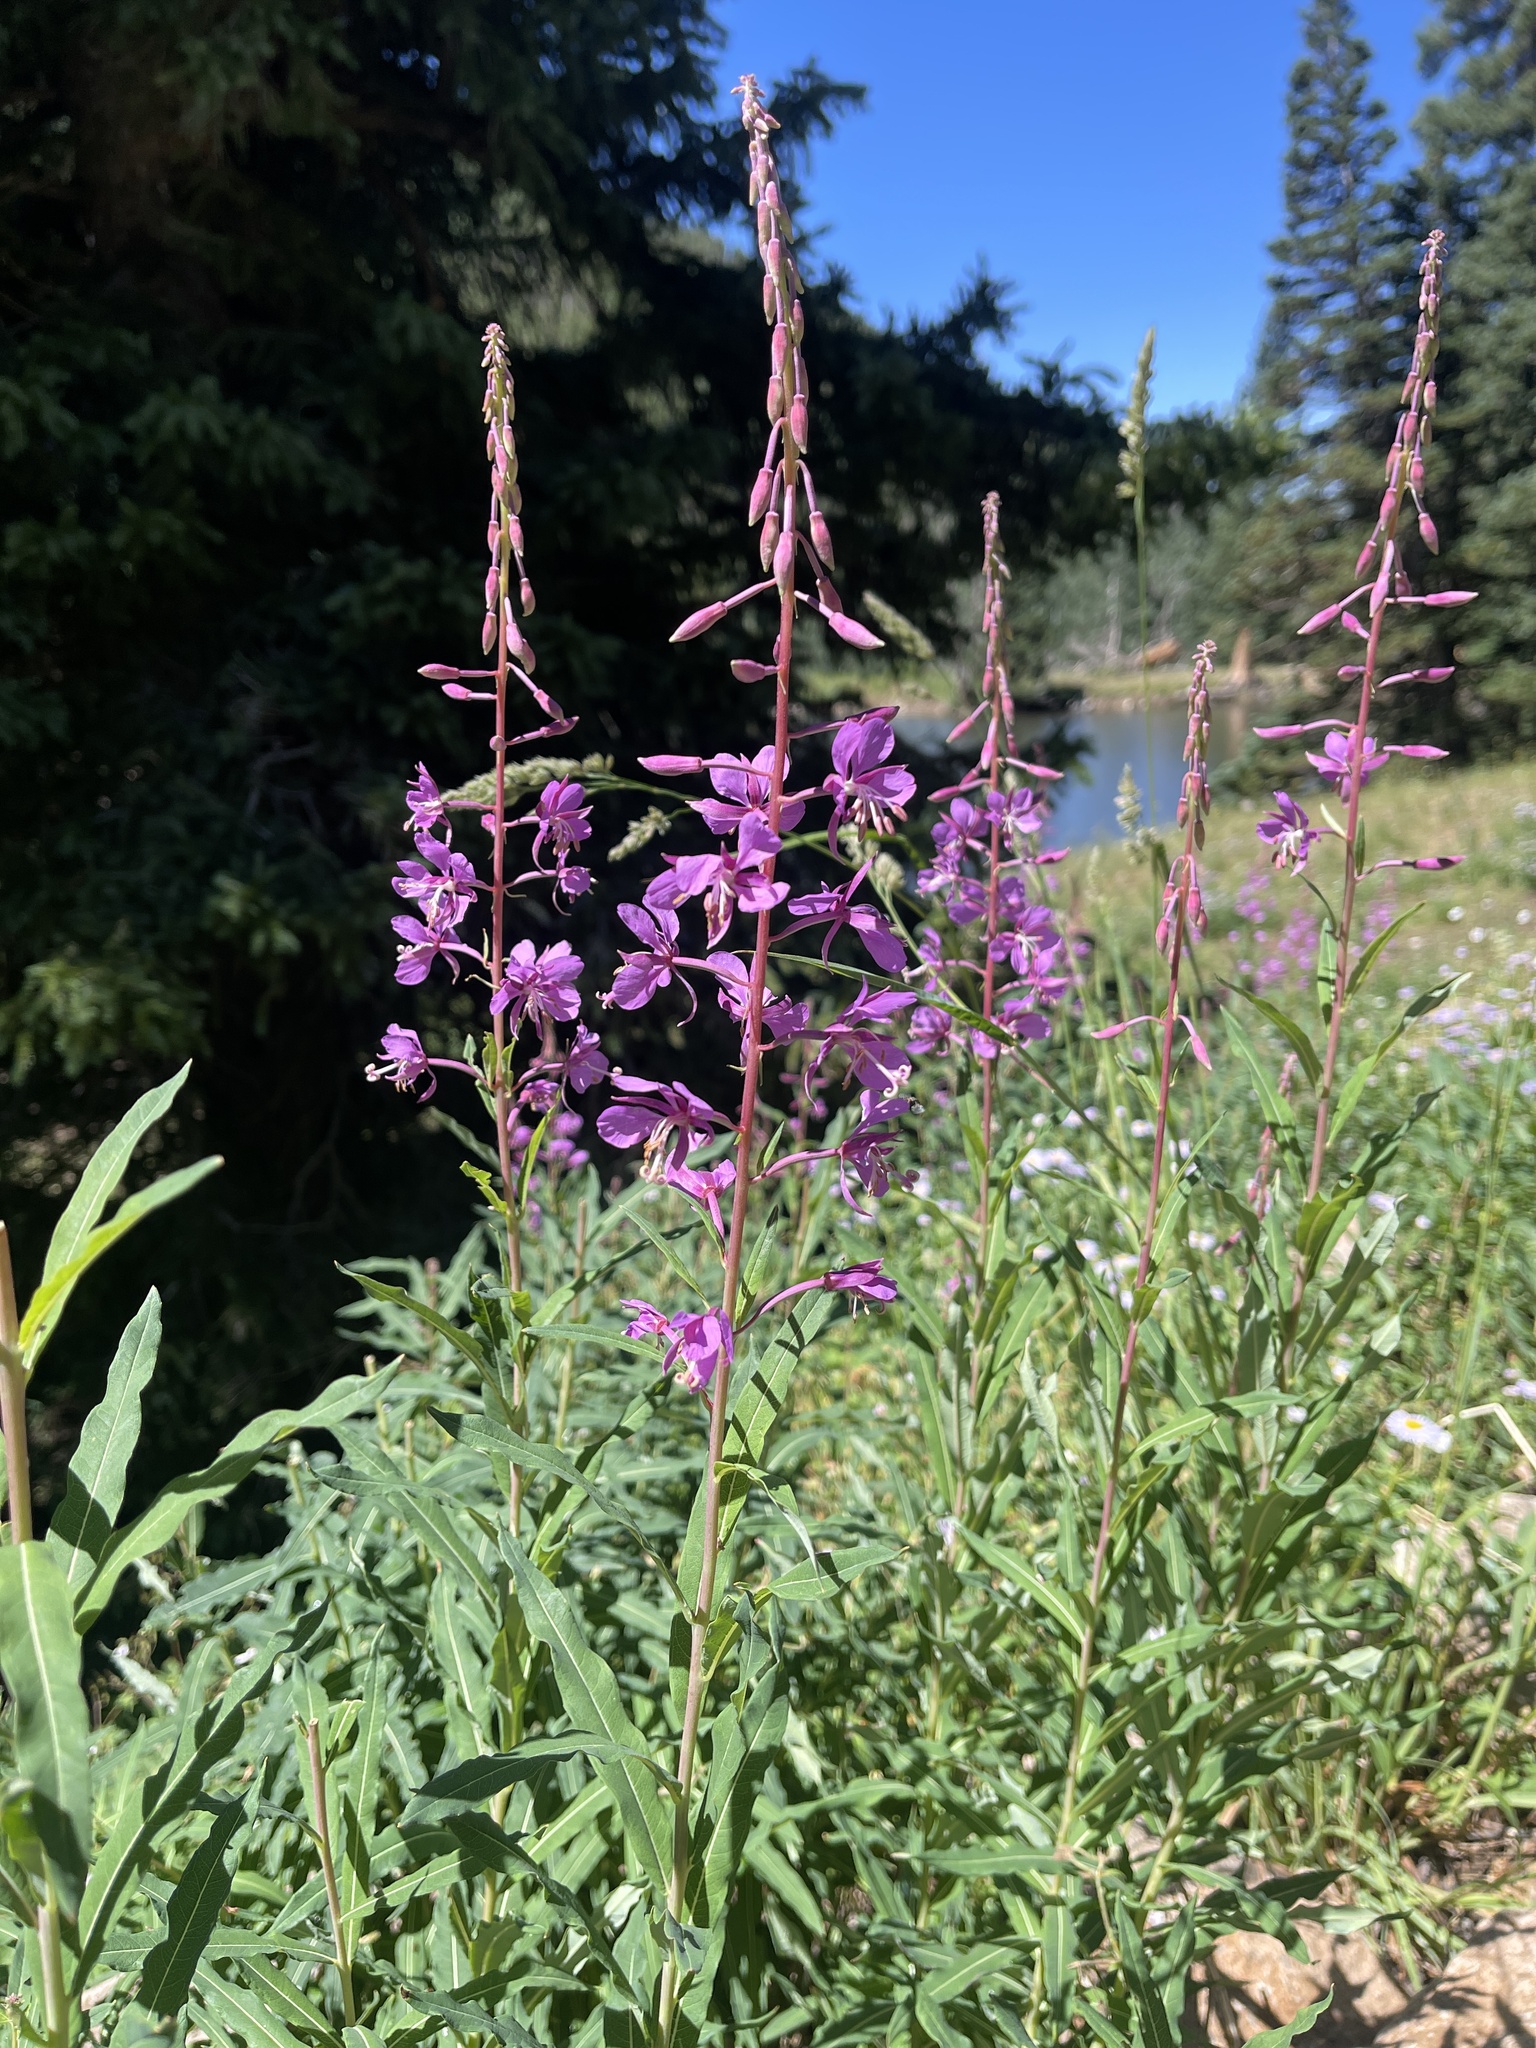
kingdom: Plantae
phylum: Tracheophyta
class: Magnoliopsida
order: Myrtales
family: Onagraceae
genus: Chamaenerion
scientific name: Chamaenerion angustifolium
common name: Fireweed
